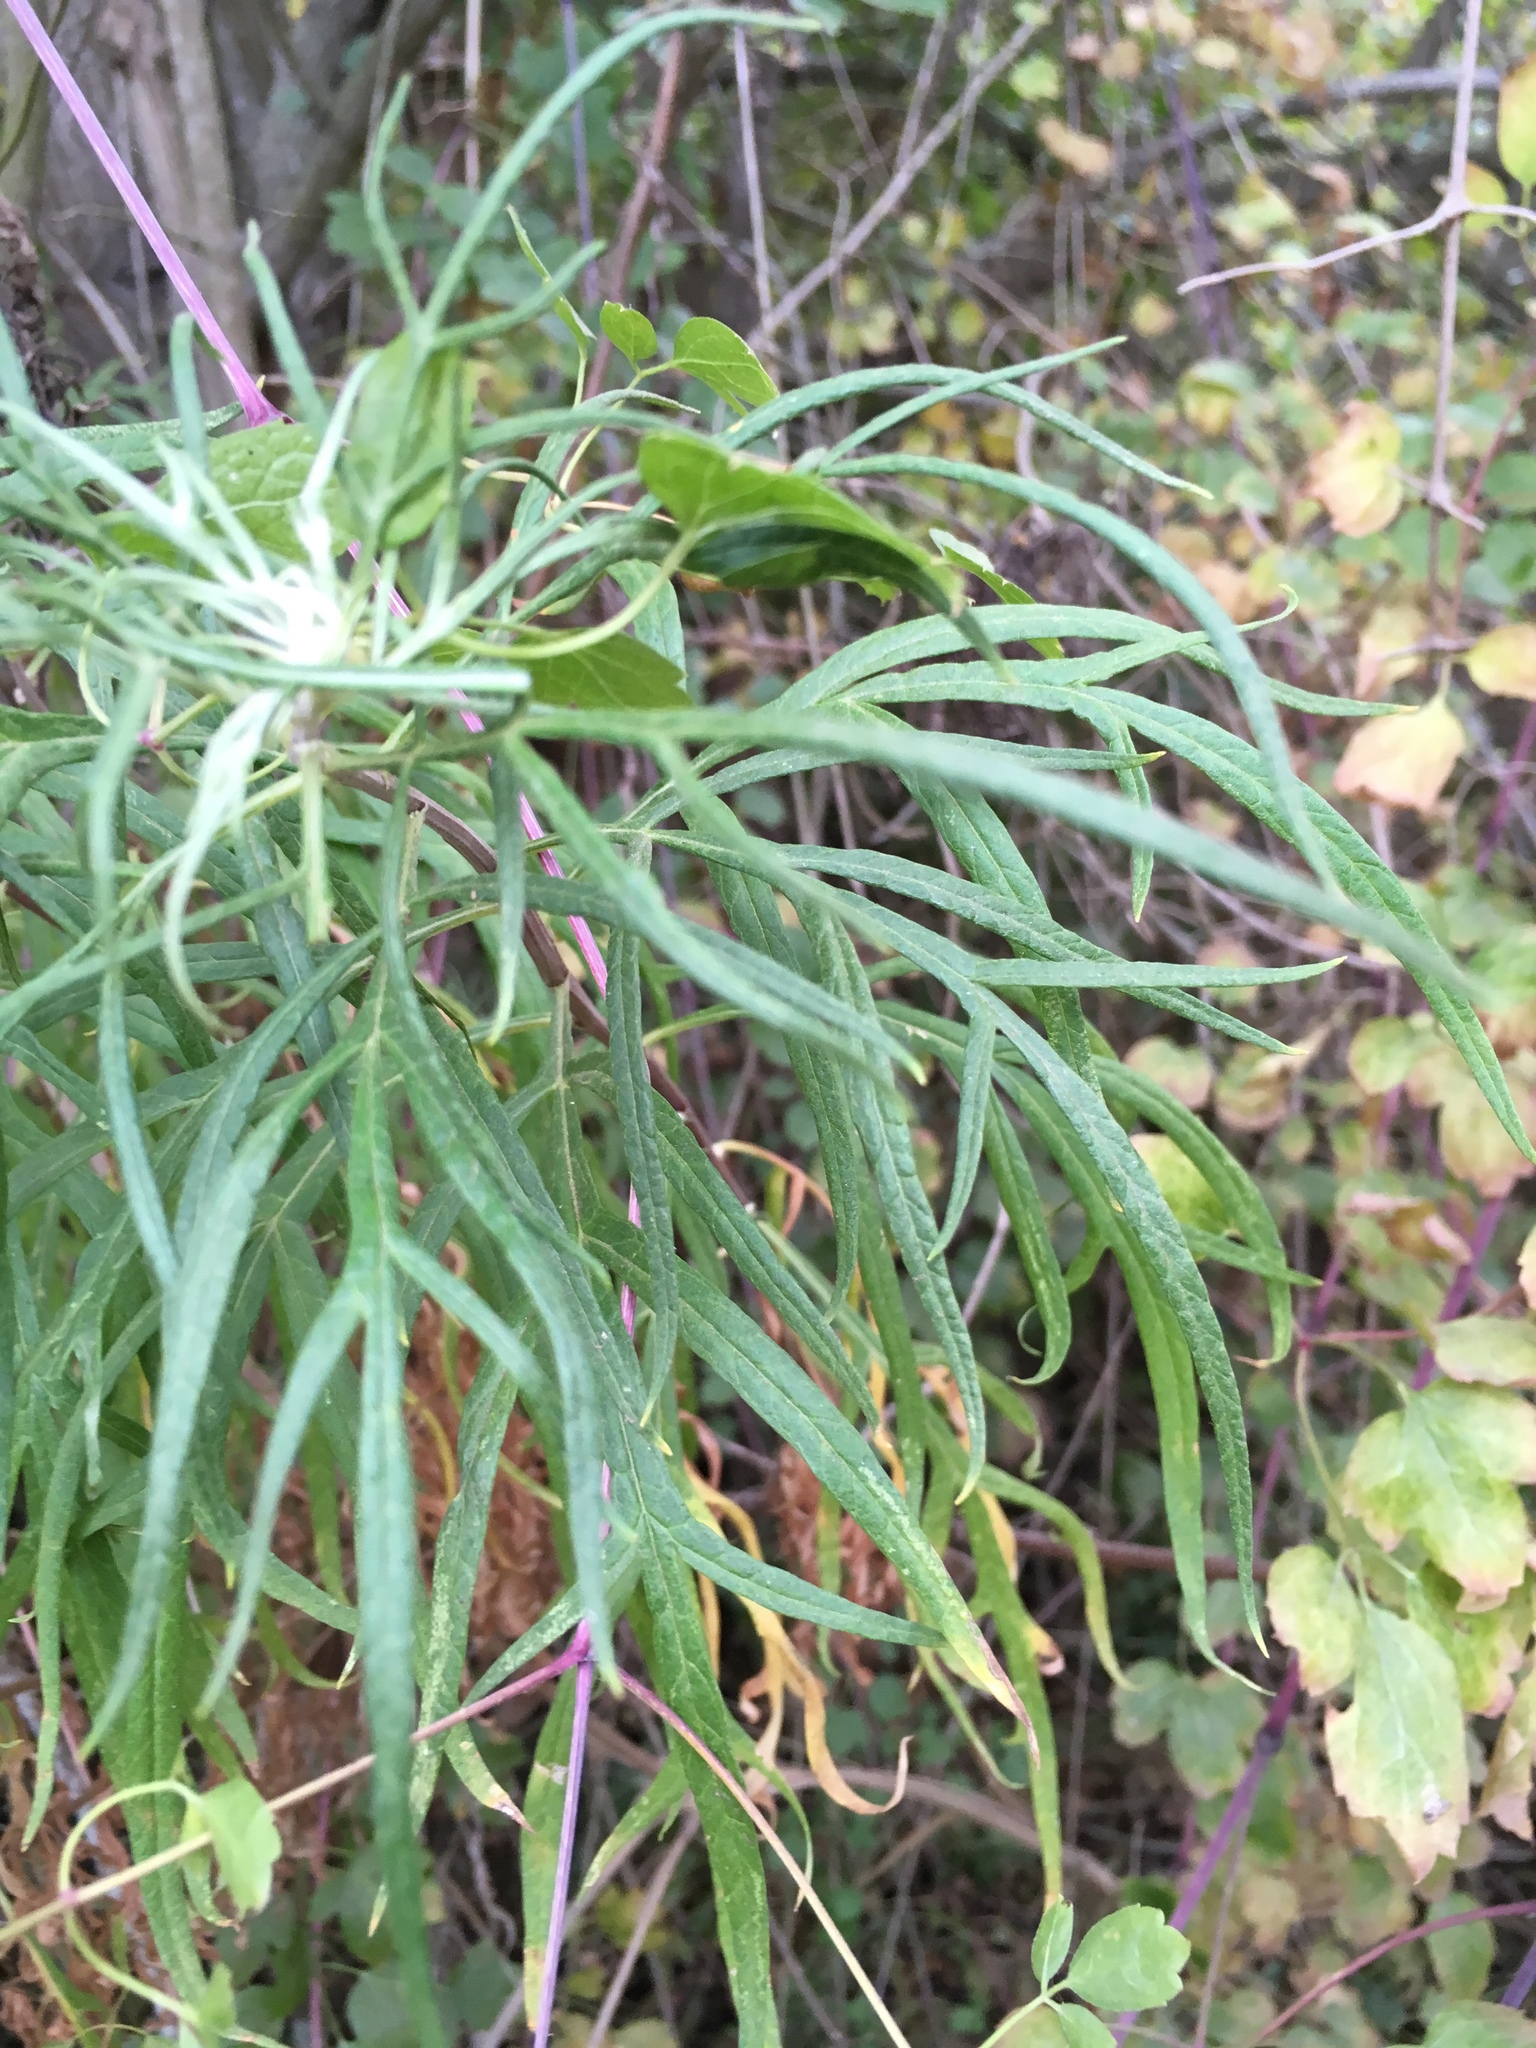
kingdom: Plantae
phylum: Tracheophyta
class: Magnoliopsida
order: Asterales
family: Asteraceae
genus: Artemisia
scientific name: Artemisia palmeri
